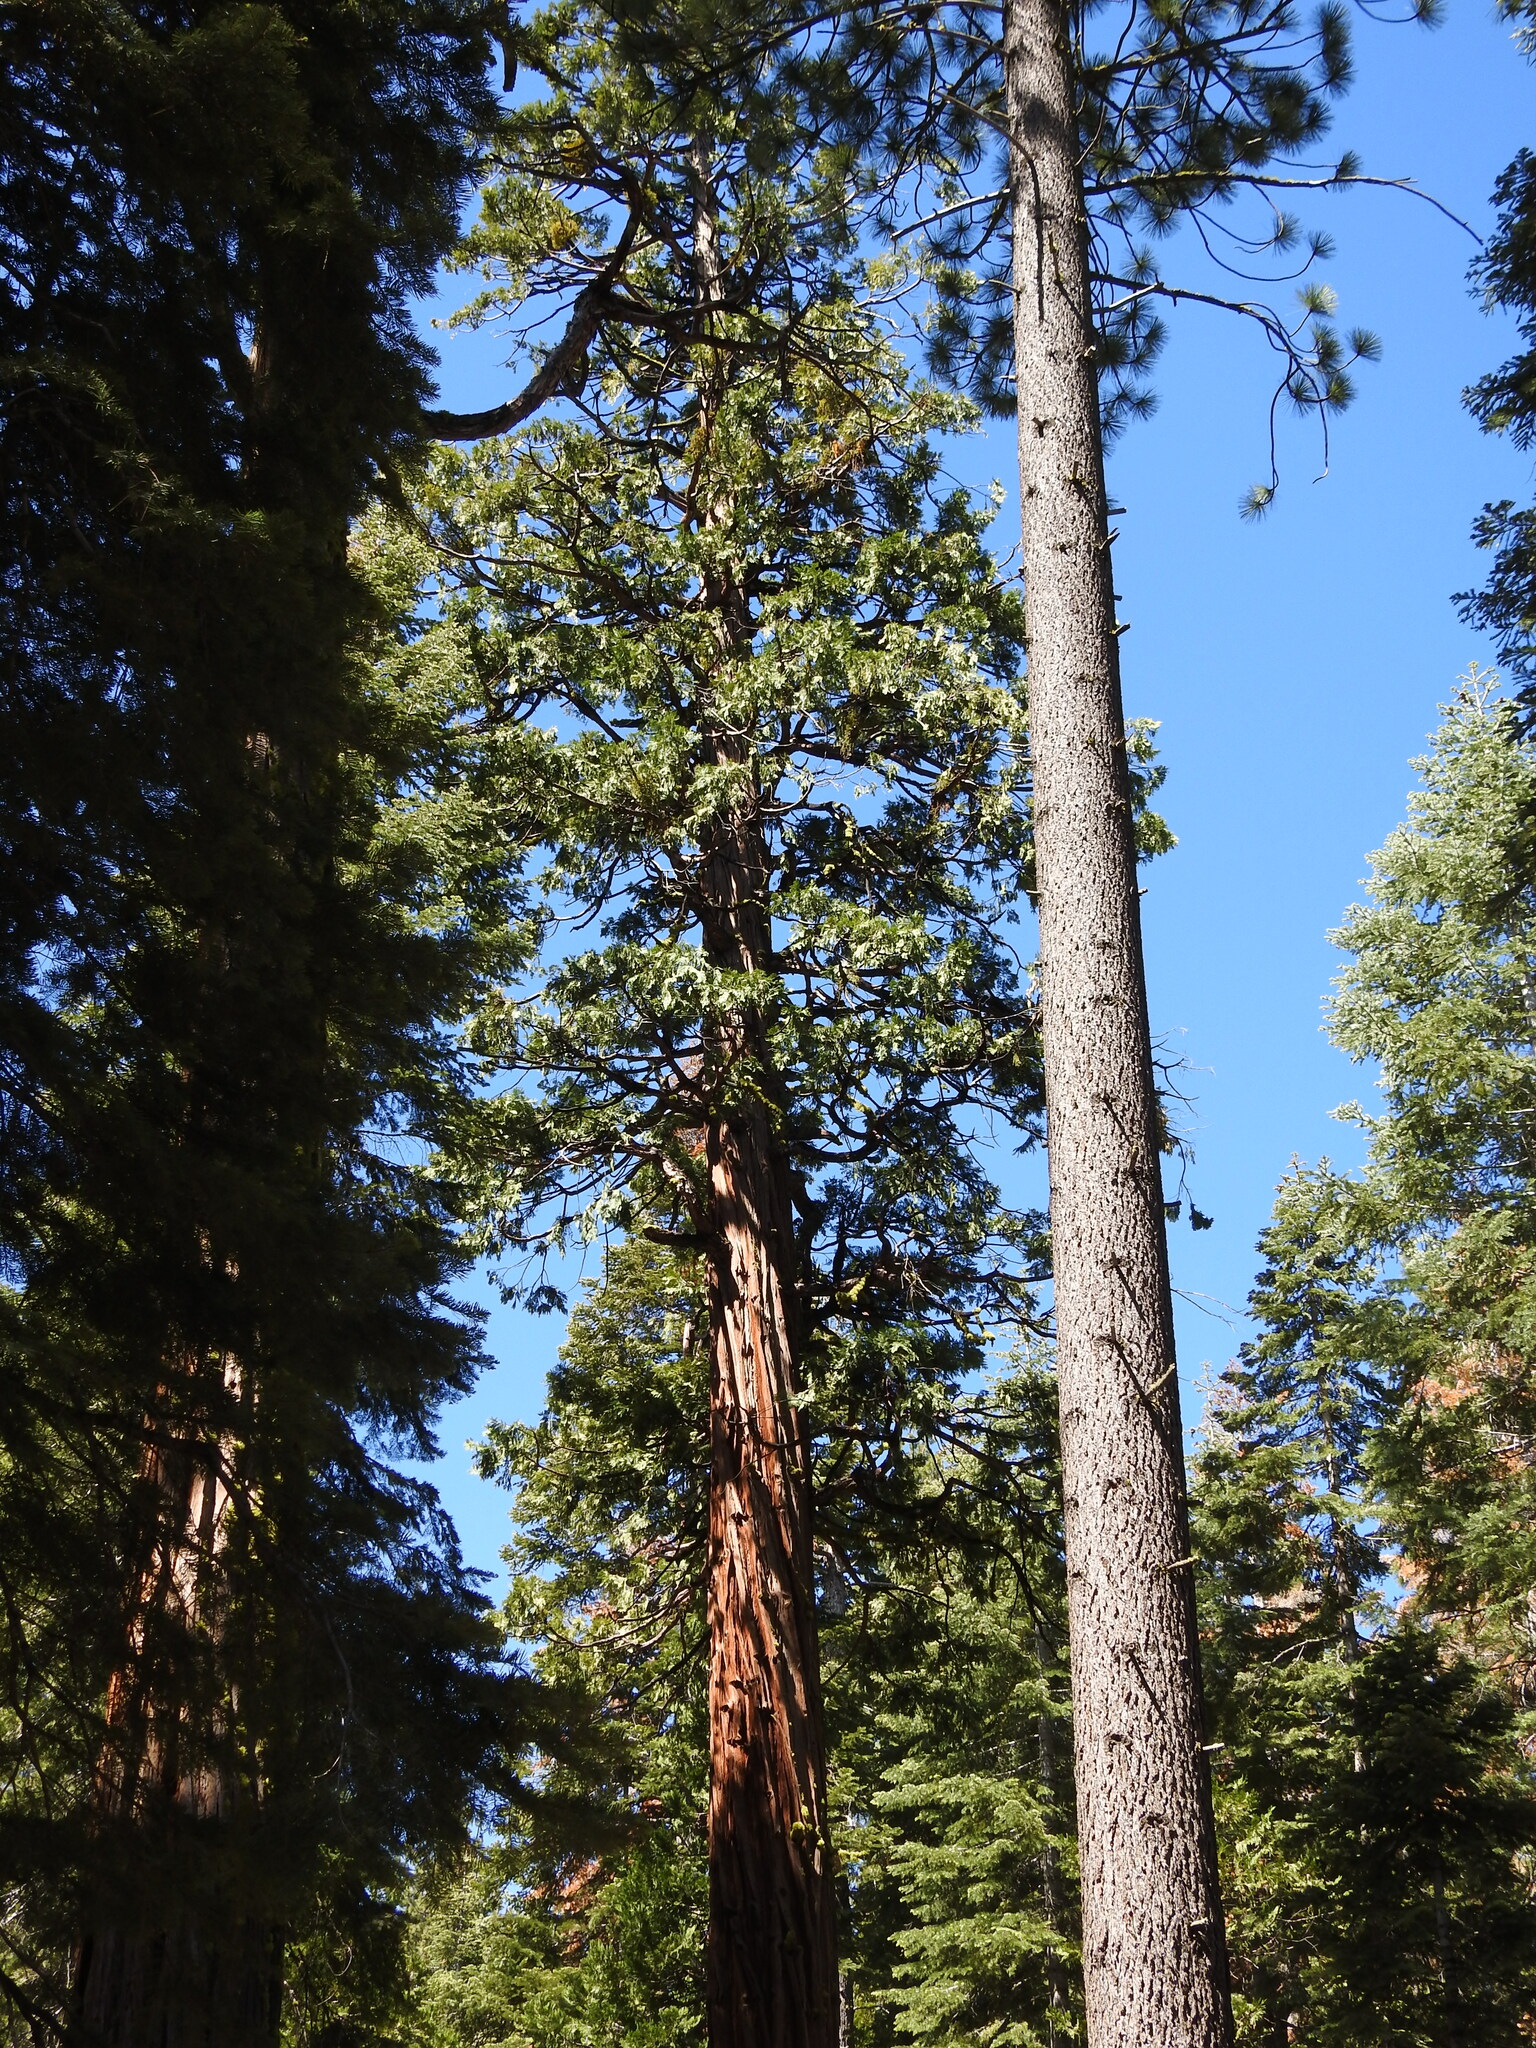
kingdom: Plantae
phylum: Tracheophyta
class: Pinopsida
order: Pinales
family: Cupressaceae
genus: Calocedrus
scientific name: Calocedrus decurrens
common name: Californian incense-cedar
